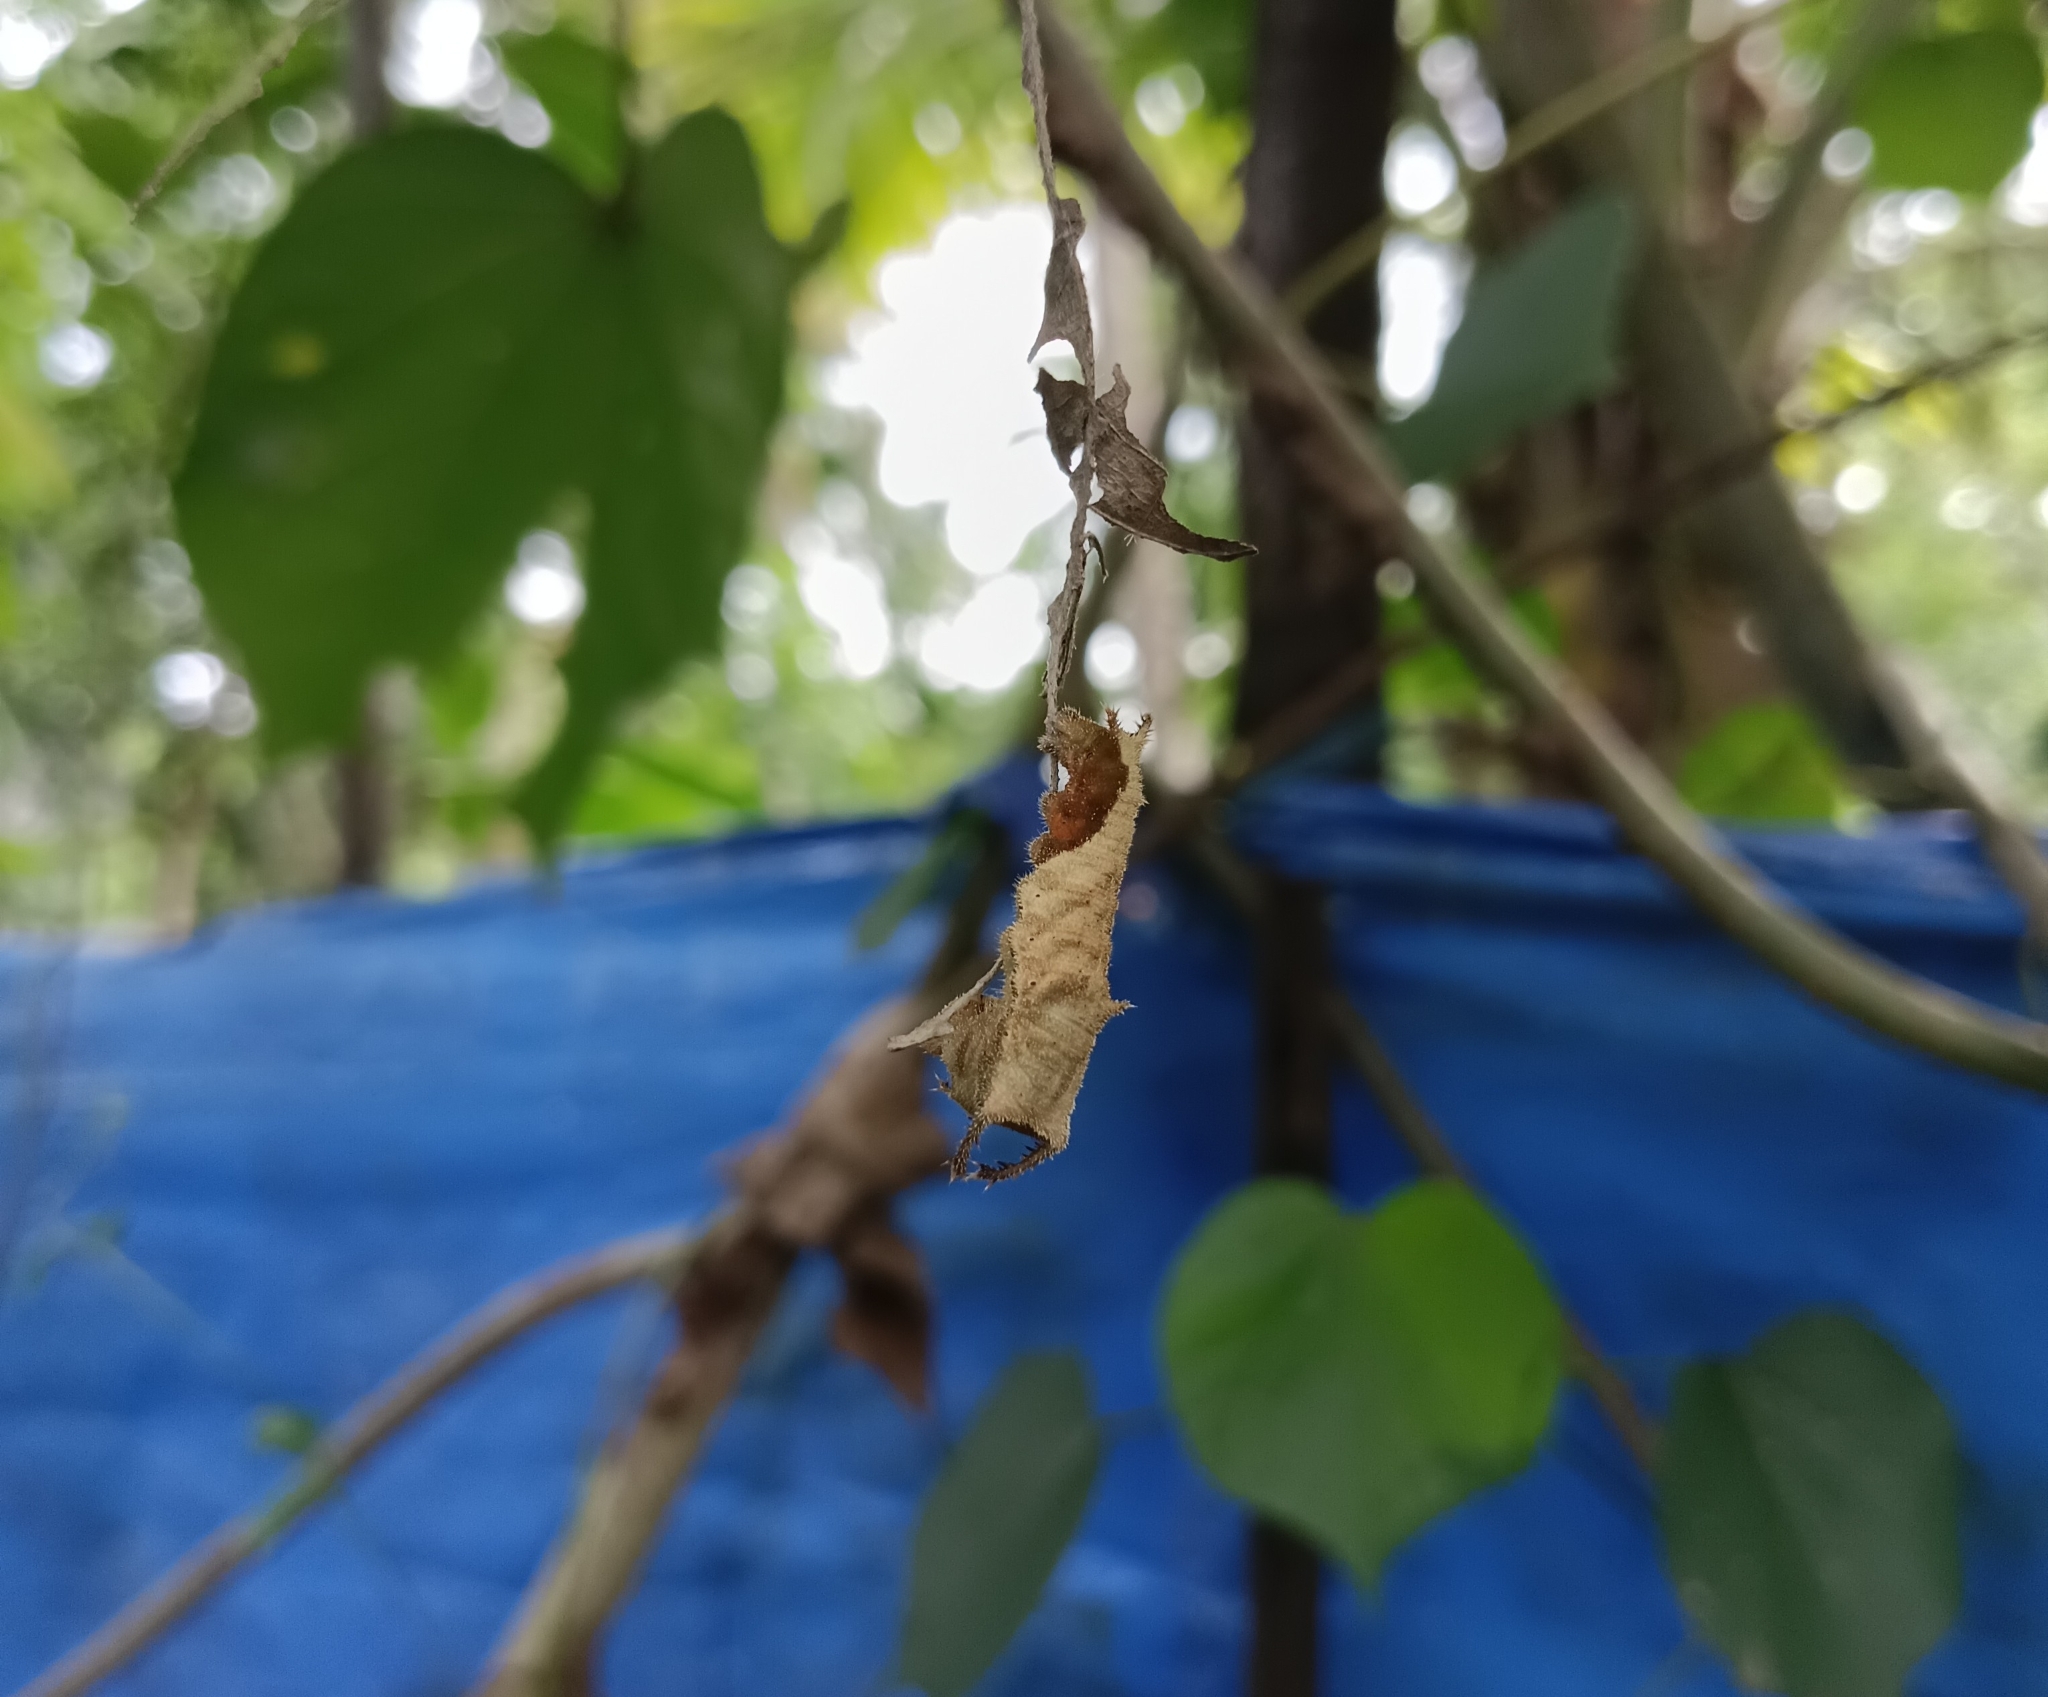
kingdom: Animalia
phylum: Arthropoda
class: Insecta
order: Lepidoptera
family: Nymphalidae
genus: Neptis
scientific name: Neptis jumbah
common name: Chestnut-streaked sailer
